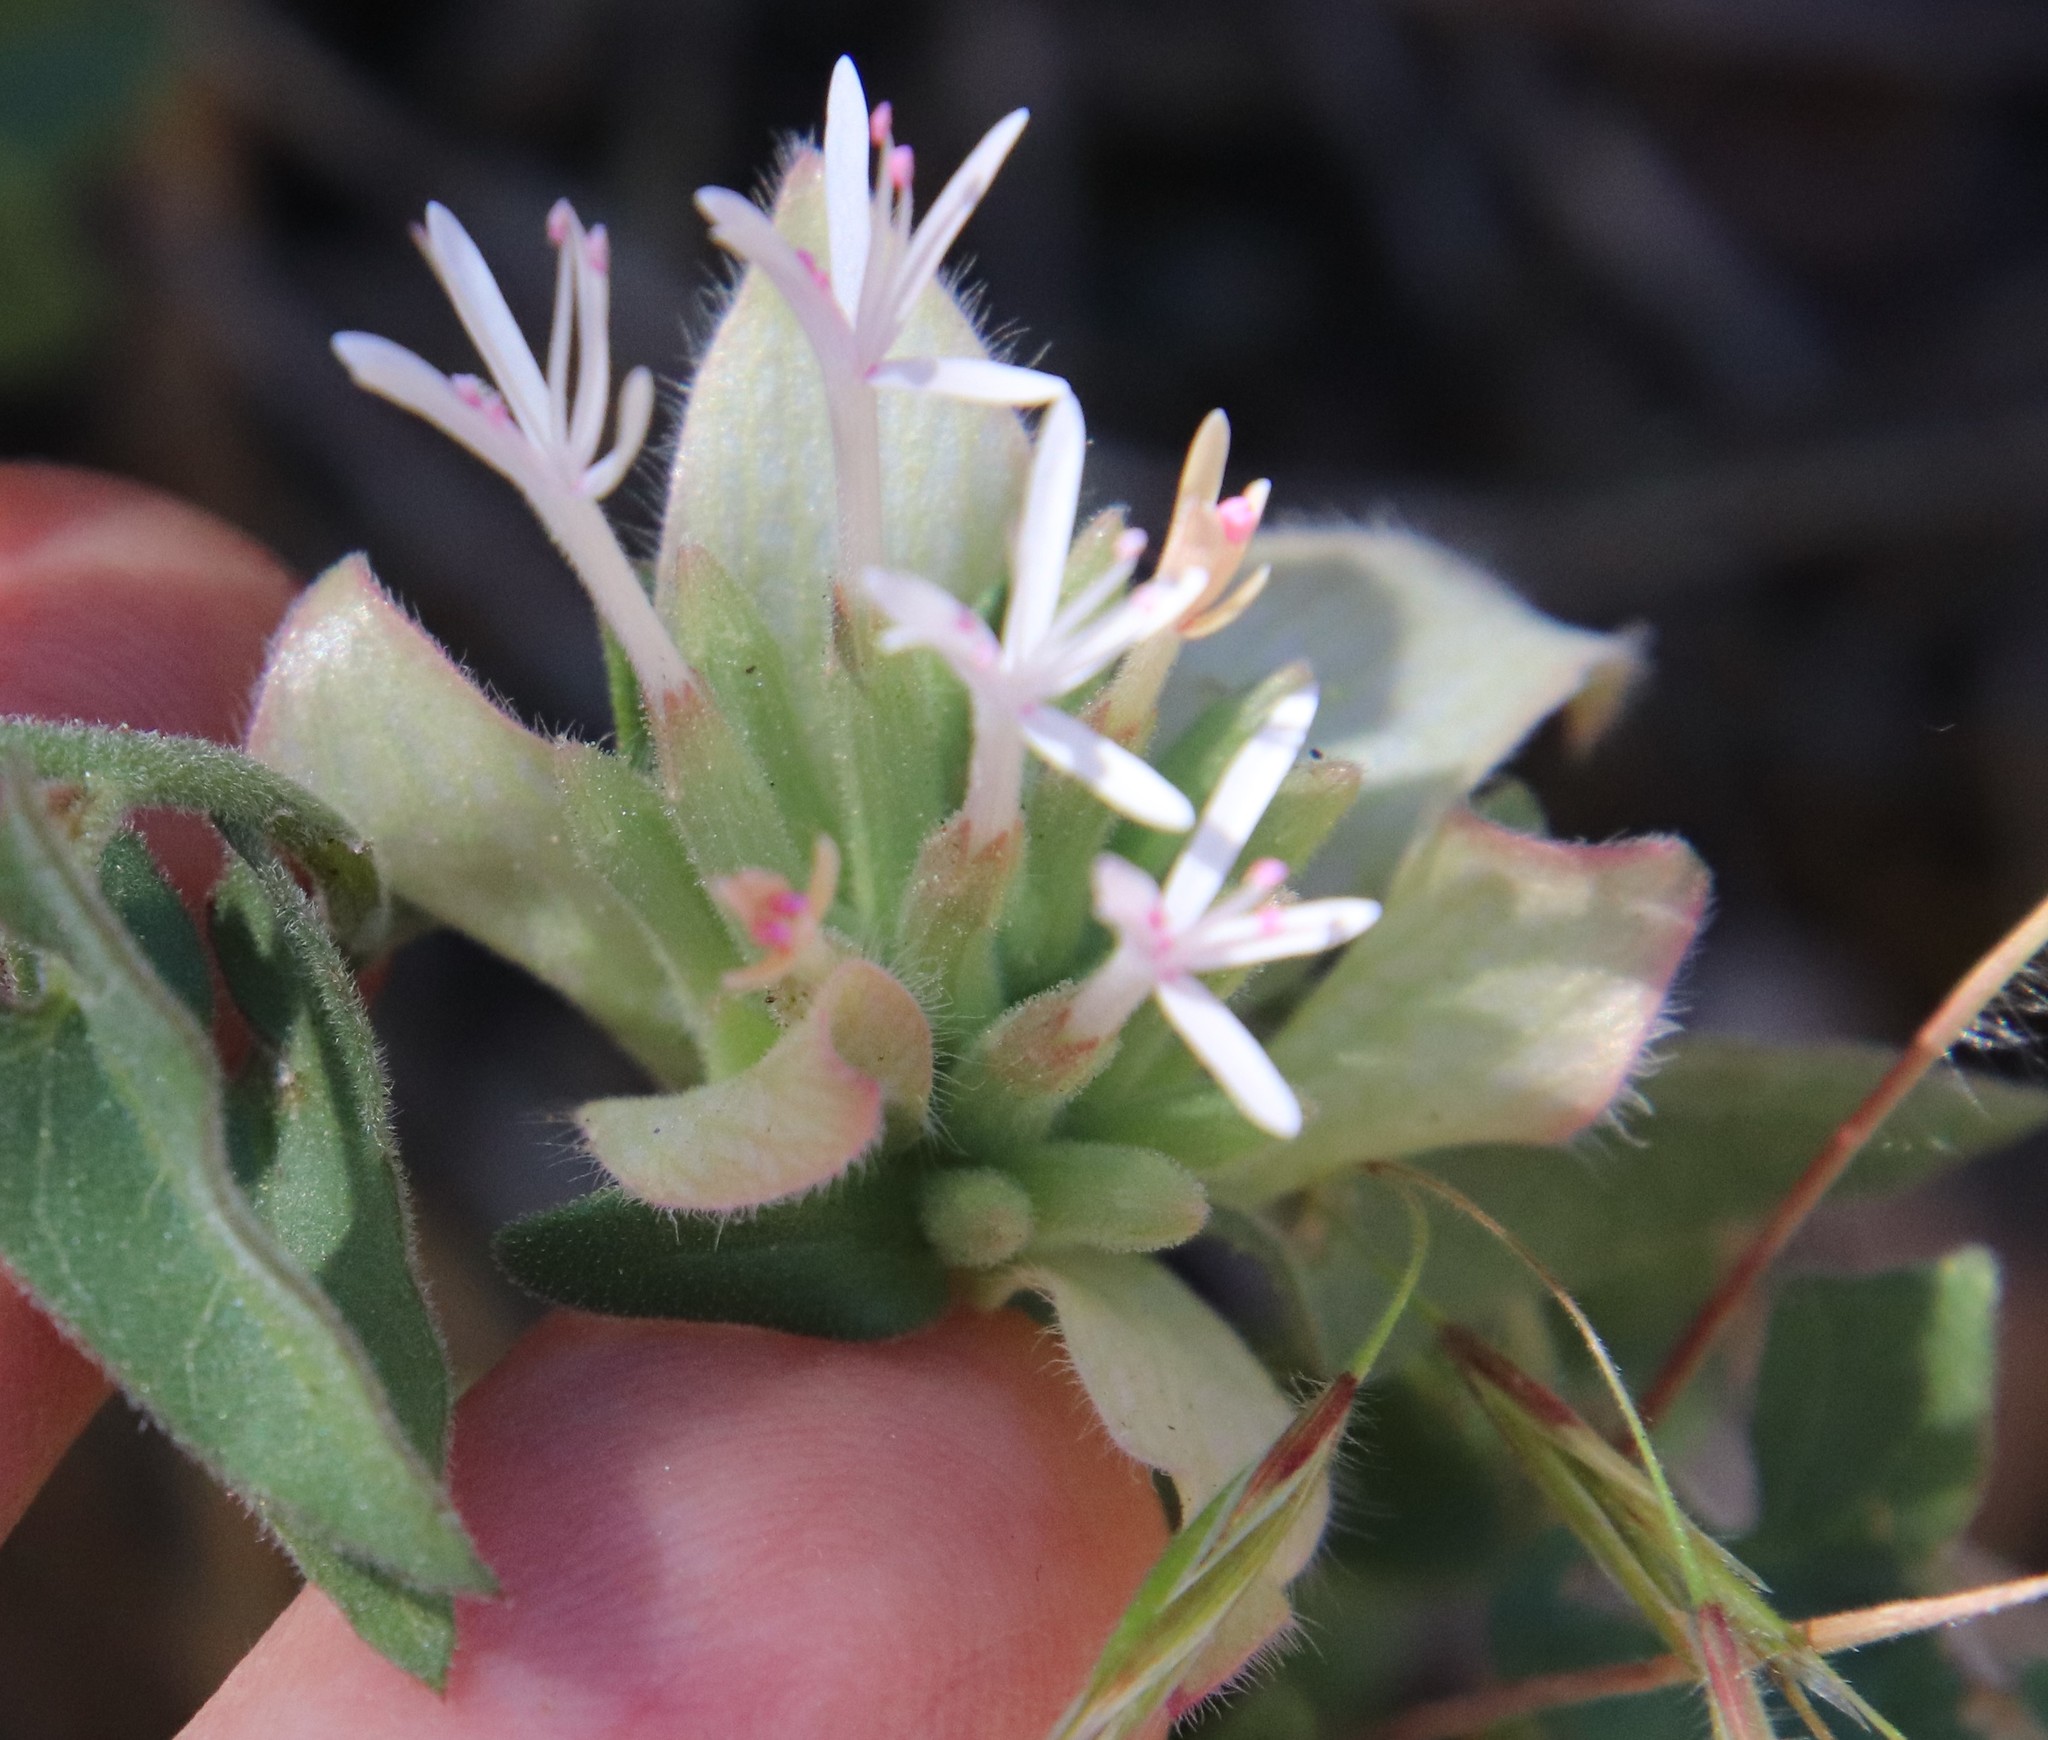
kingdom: Plantae
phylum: Tracheophyta
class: Magnoliopsida
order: Lamiales
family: Lamiaceae
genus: Monardella
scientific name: Monardella nana
